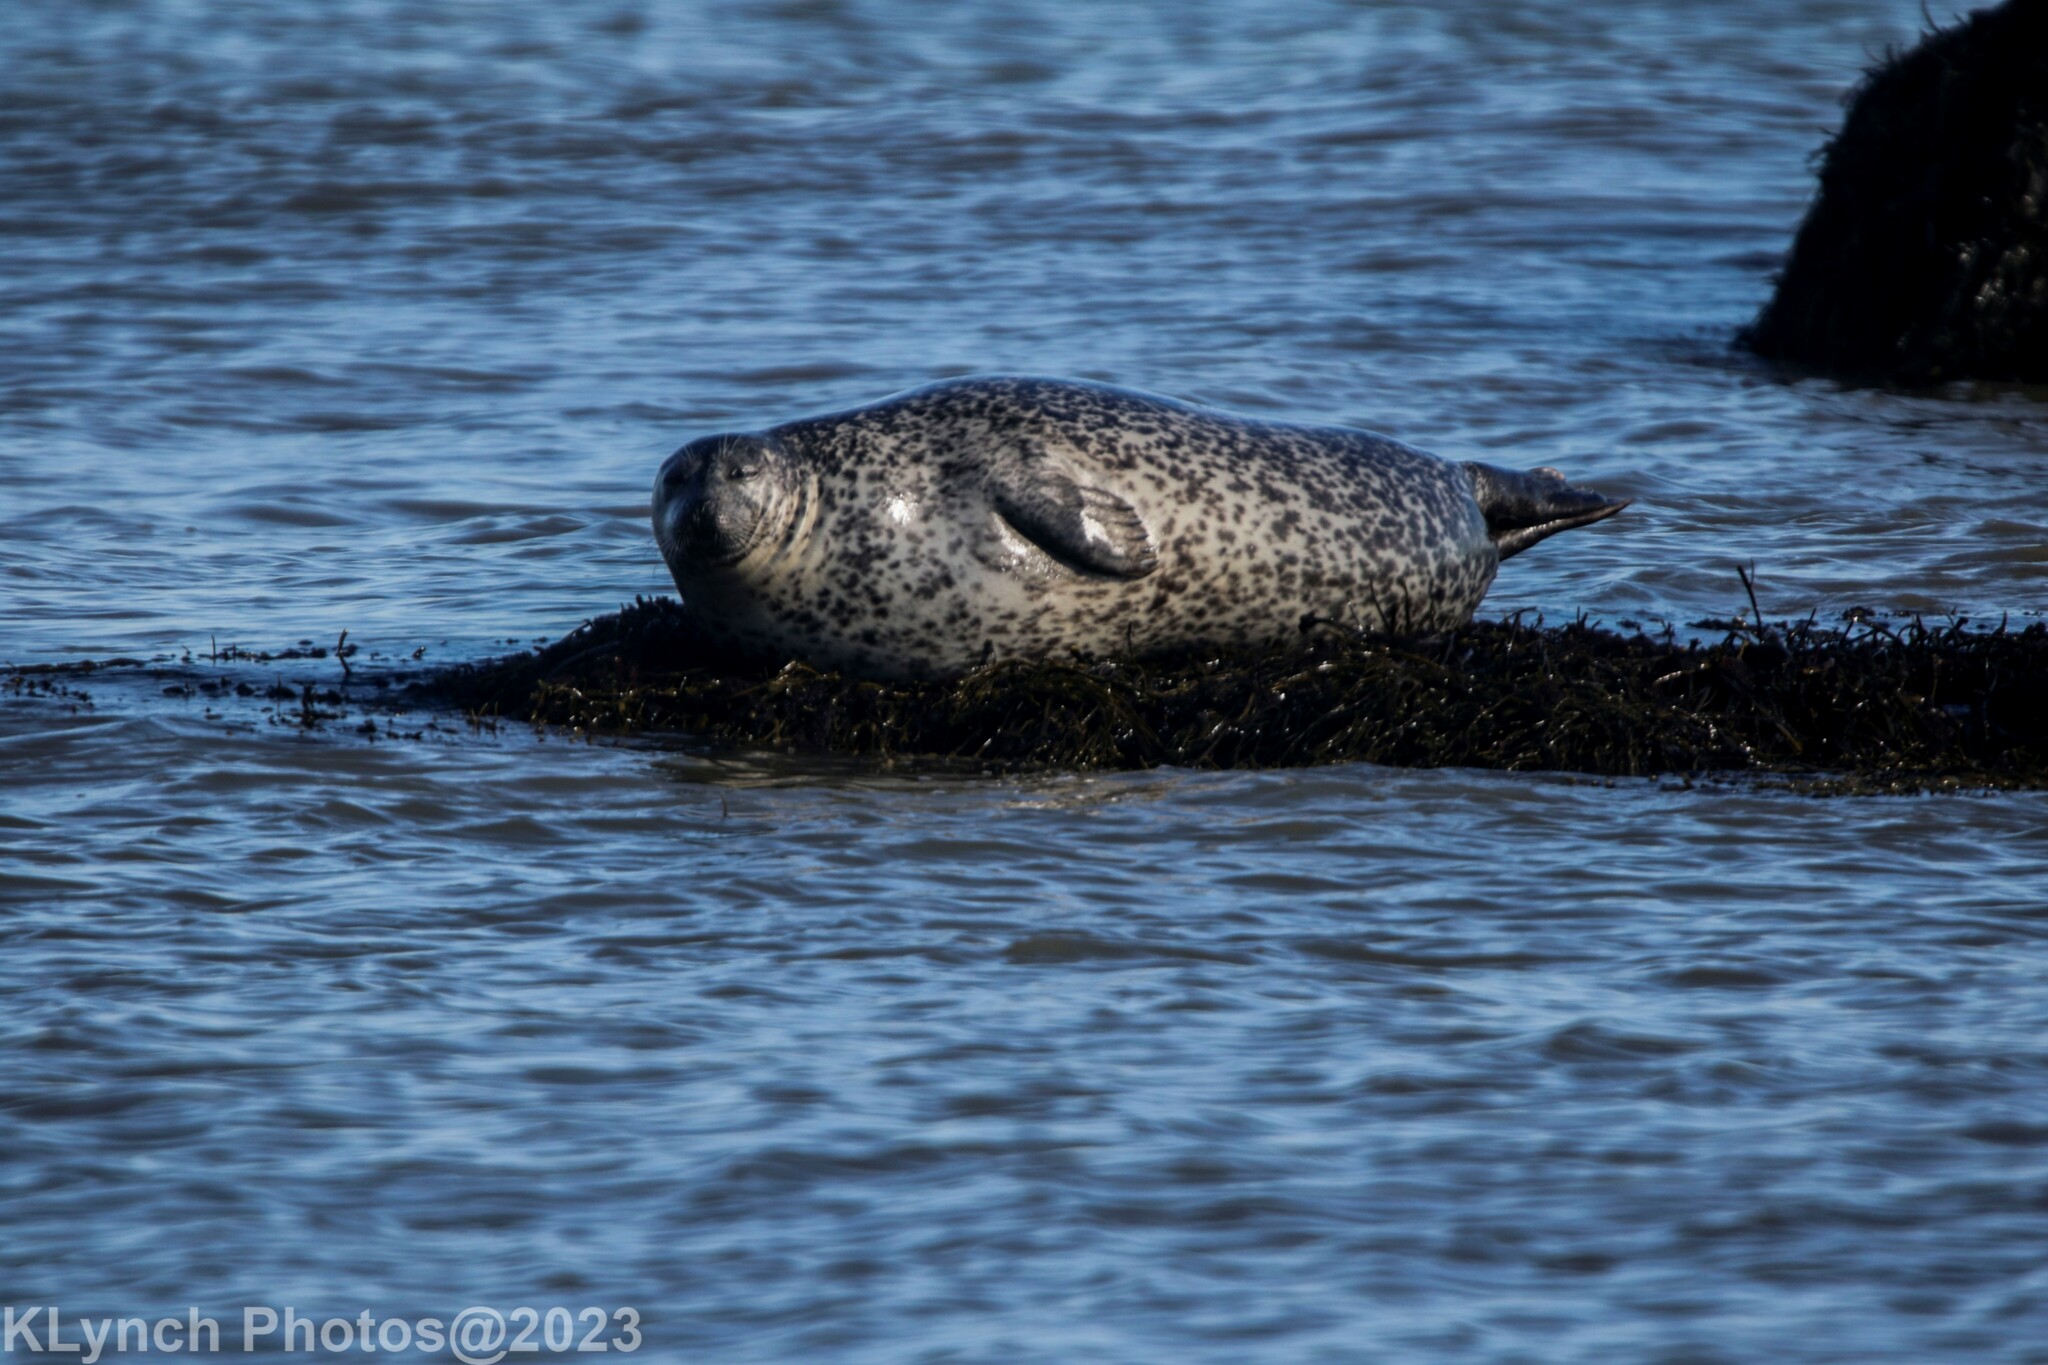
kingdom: Animalia
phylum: Chordata
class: Mammalia
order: Carnivora
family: Phocidae
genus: Phoca
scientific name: Phoca vitulina
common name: Harbor seal
